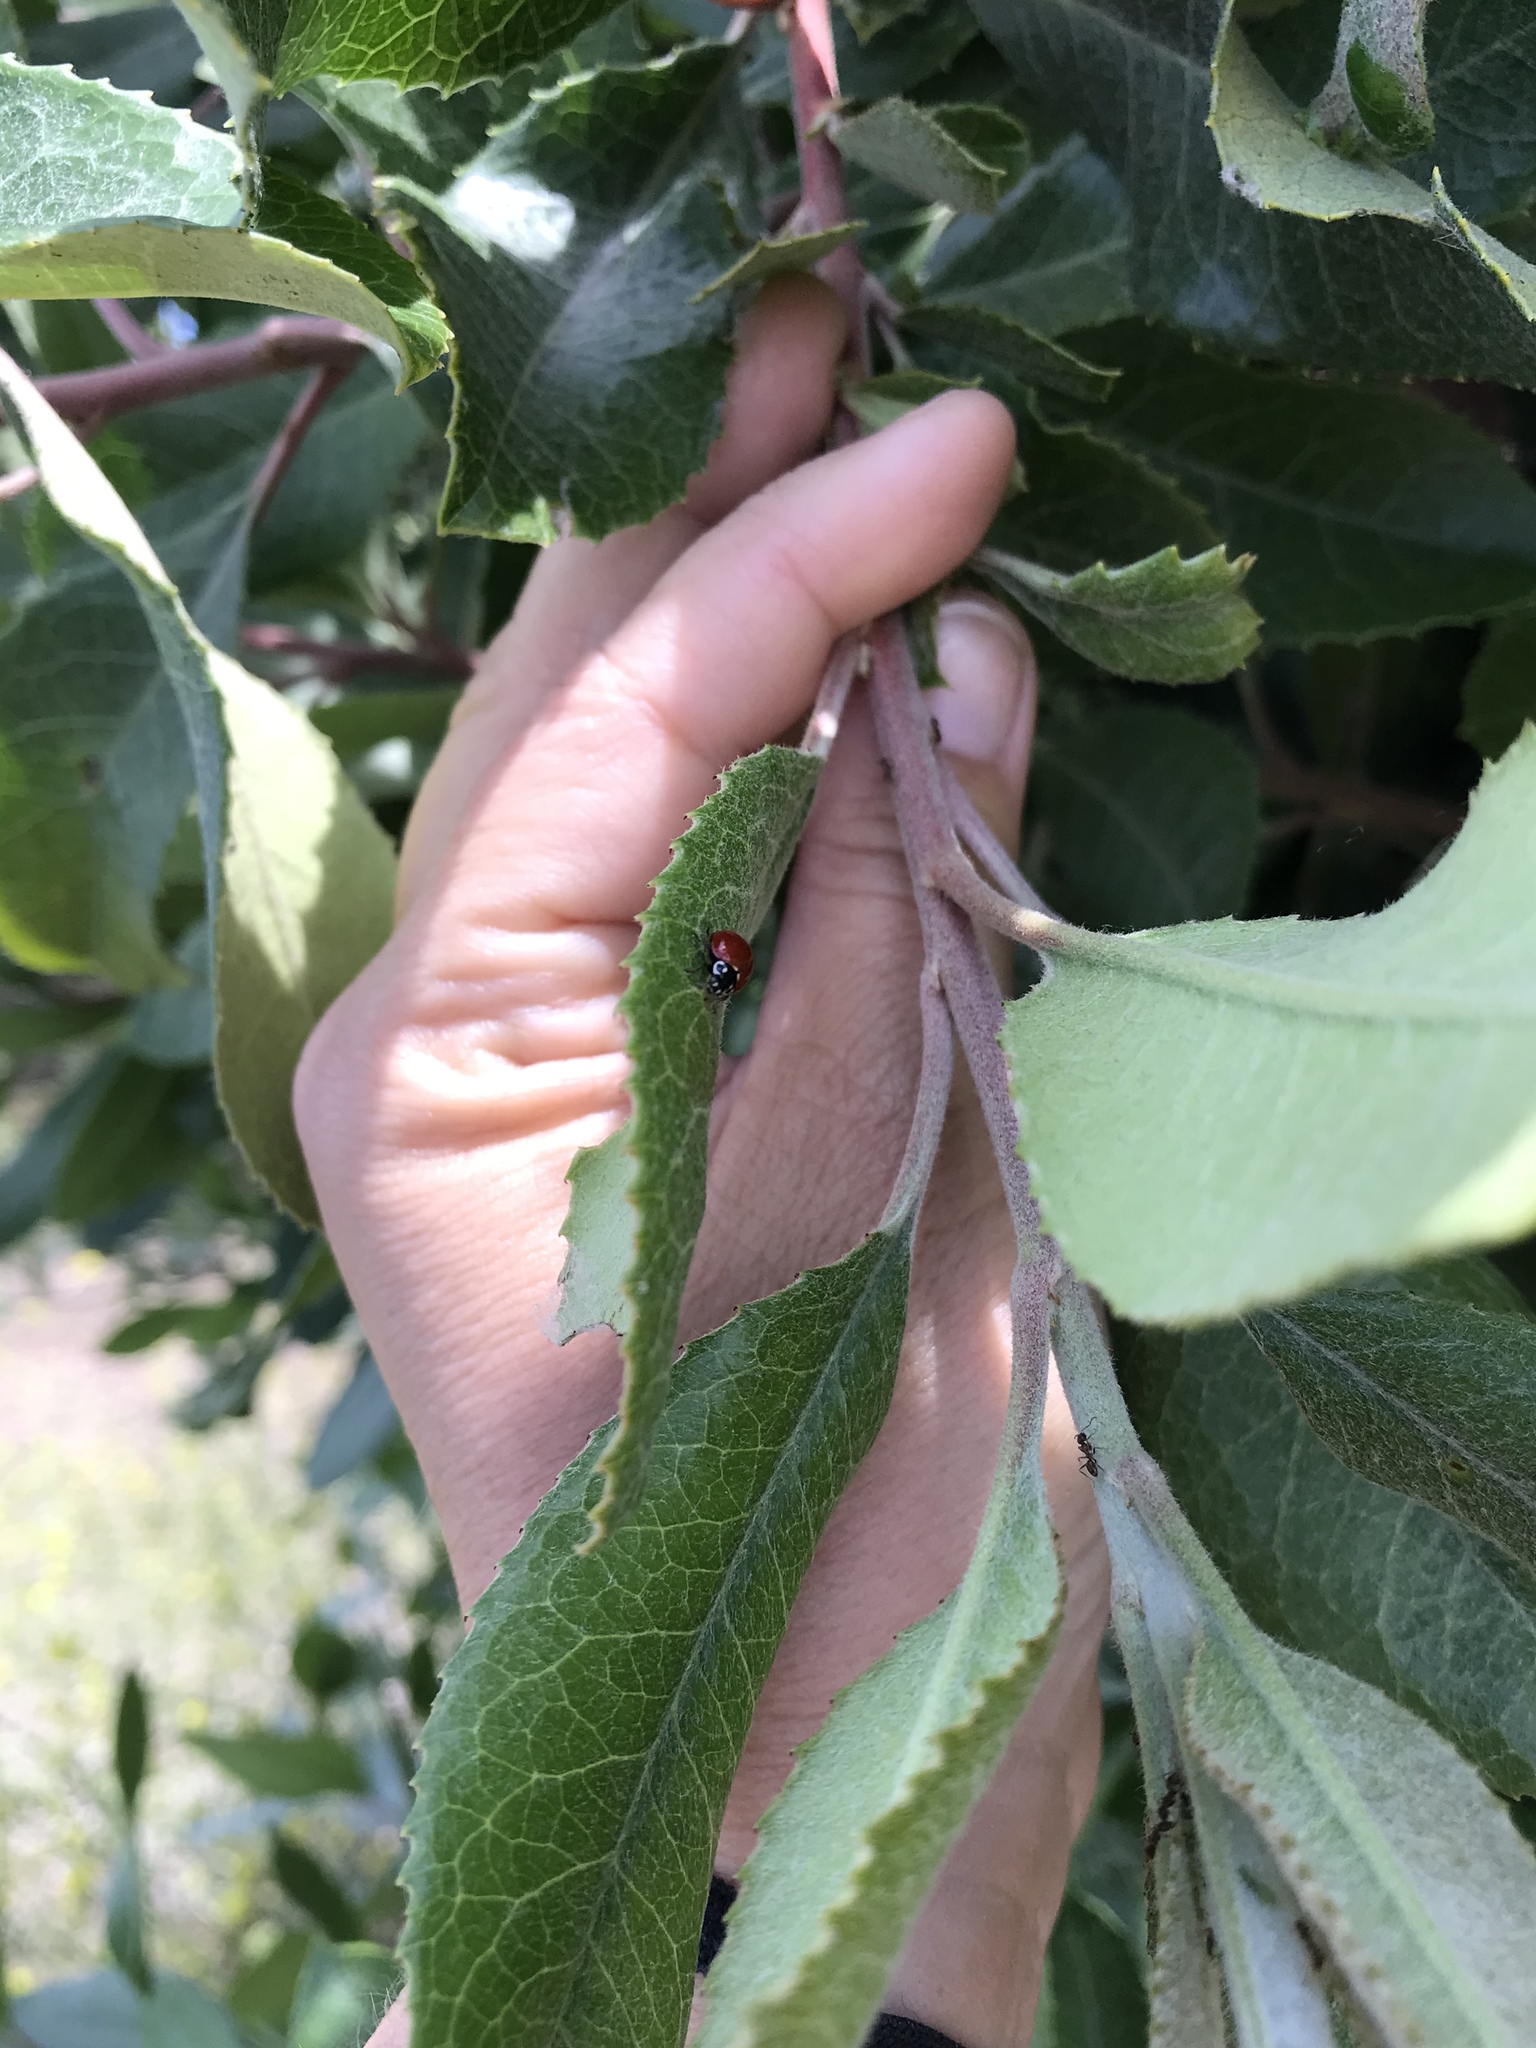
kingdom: Animalia
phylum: Arthropoda
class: Insecta
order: Coleoptera
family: Coccinellidae
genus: Cycloneda
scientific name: Cycloneda sanguinea
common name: Ladybird beetle
